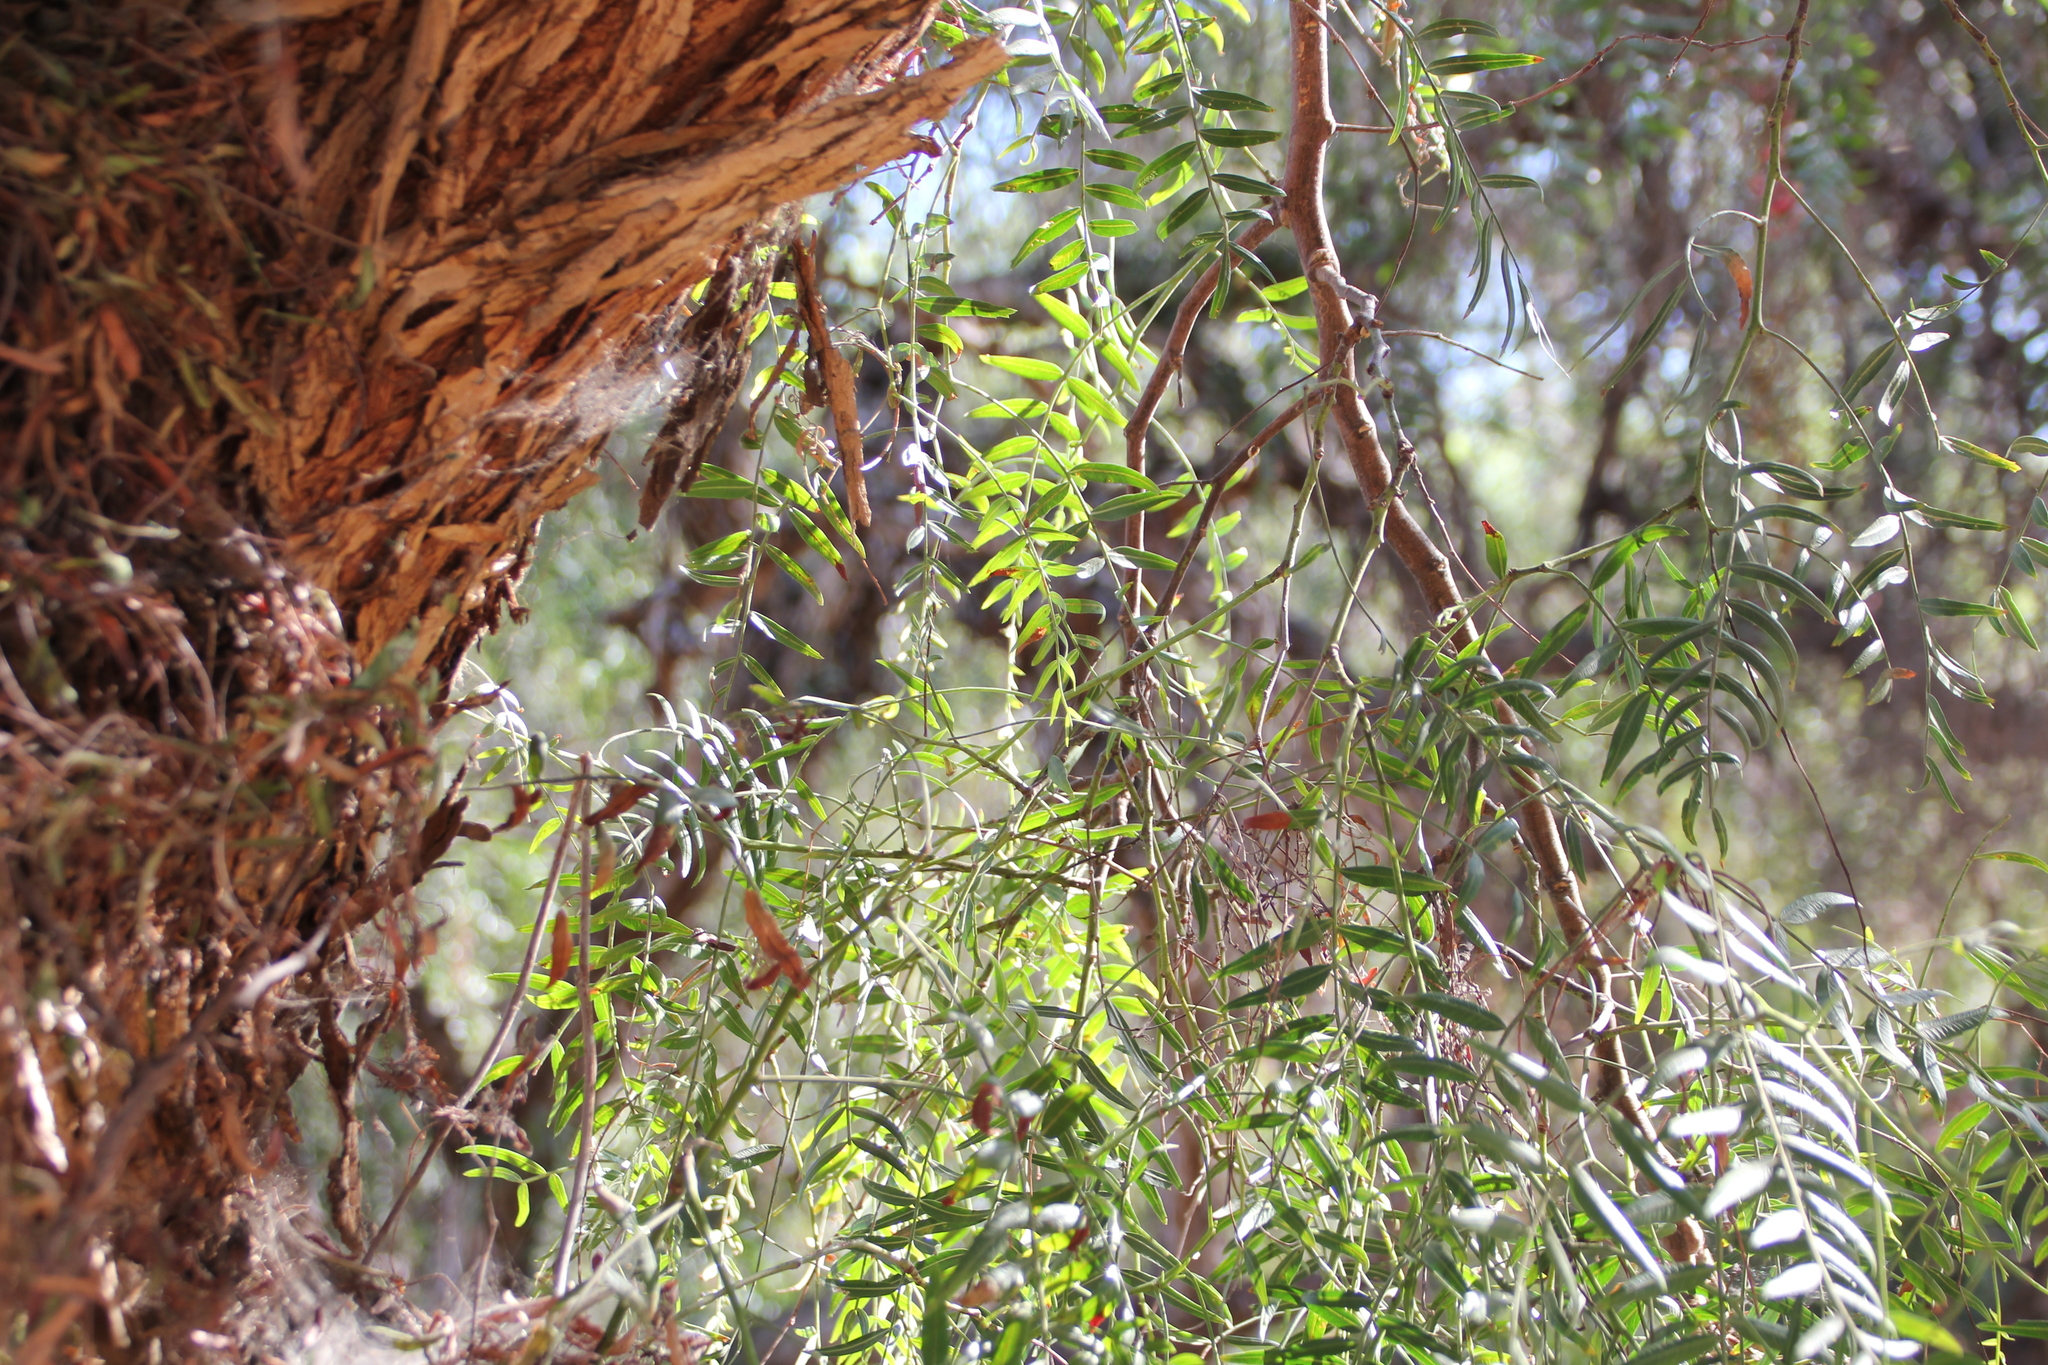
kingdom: Plantae
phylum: Tracheophyta
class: Magnoliopsida
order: Sapindales
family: Anacardiaceae
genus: Schinus
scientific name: Schinus molle
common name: Peruvian peppertree
